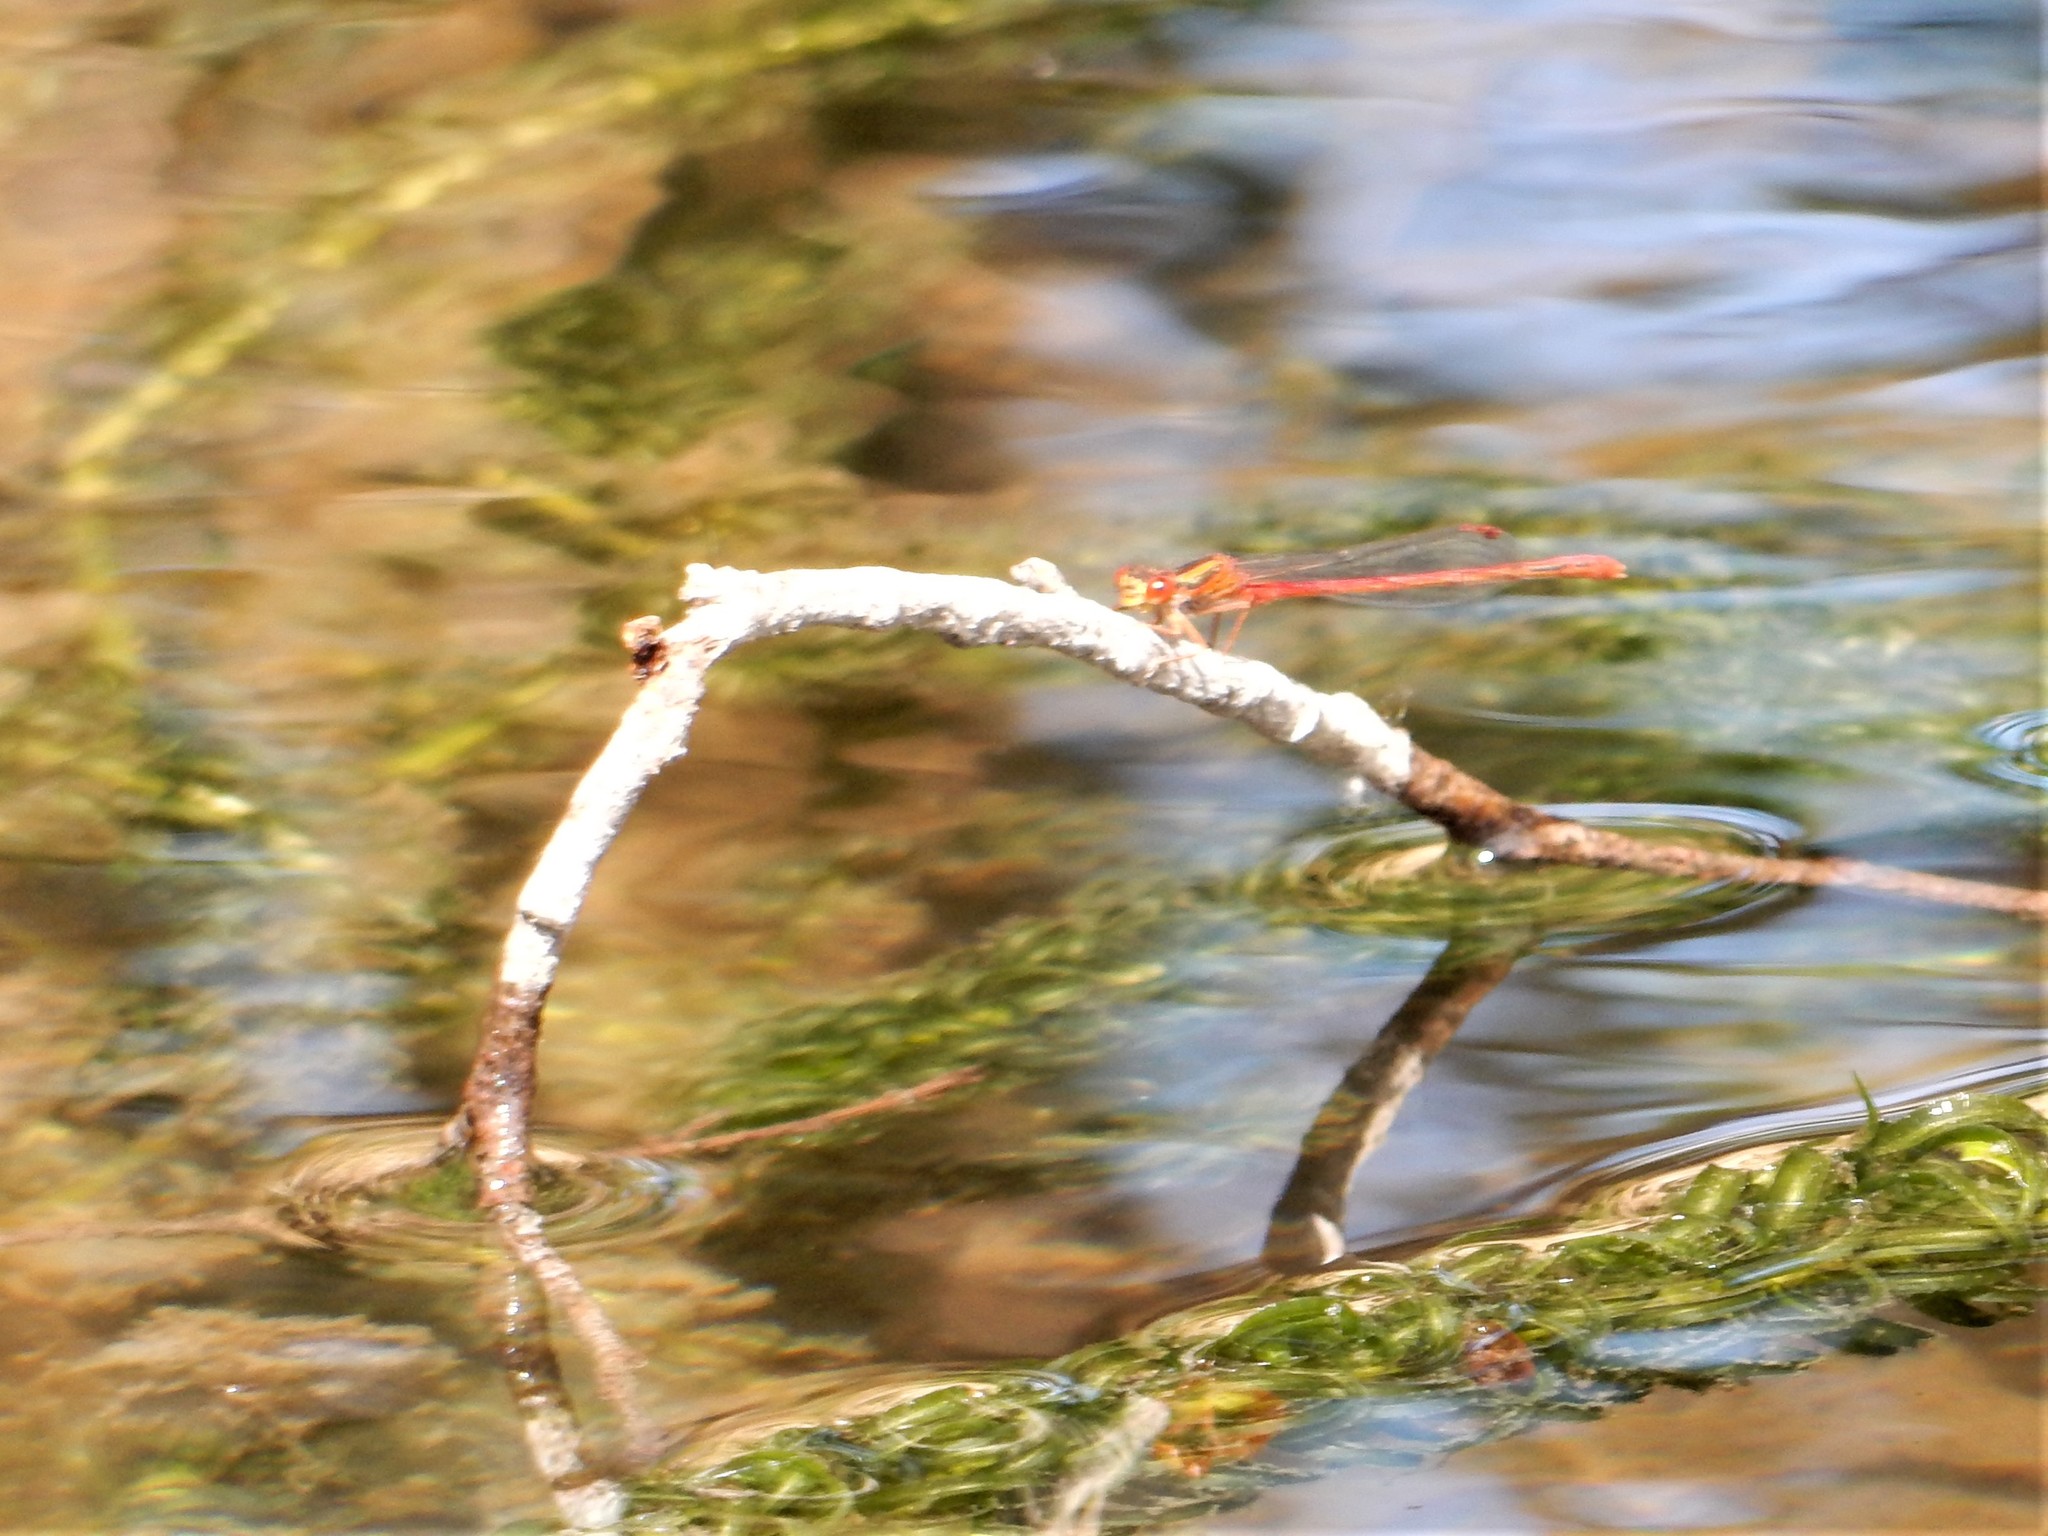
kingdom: Animalia
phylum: Arthropoda
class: Insecta
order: Odonata
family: Coenagrionidae
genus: Xanthocnemis
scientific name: Xanthocnemis zealandica
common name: Common redcoat damselfly
